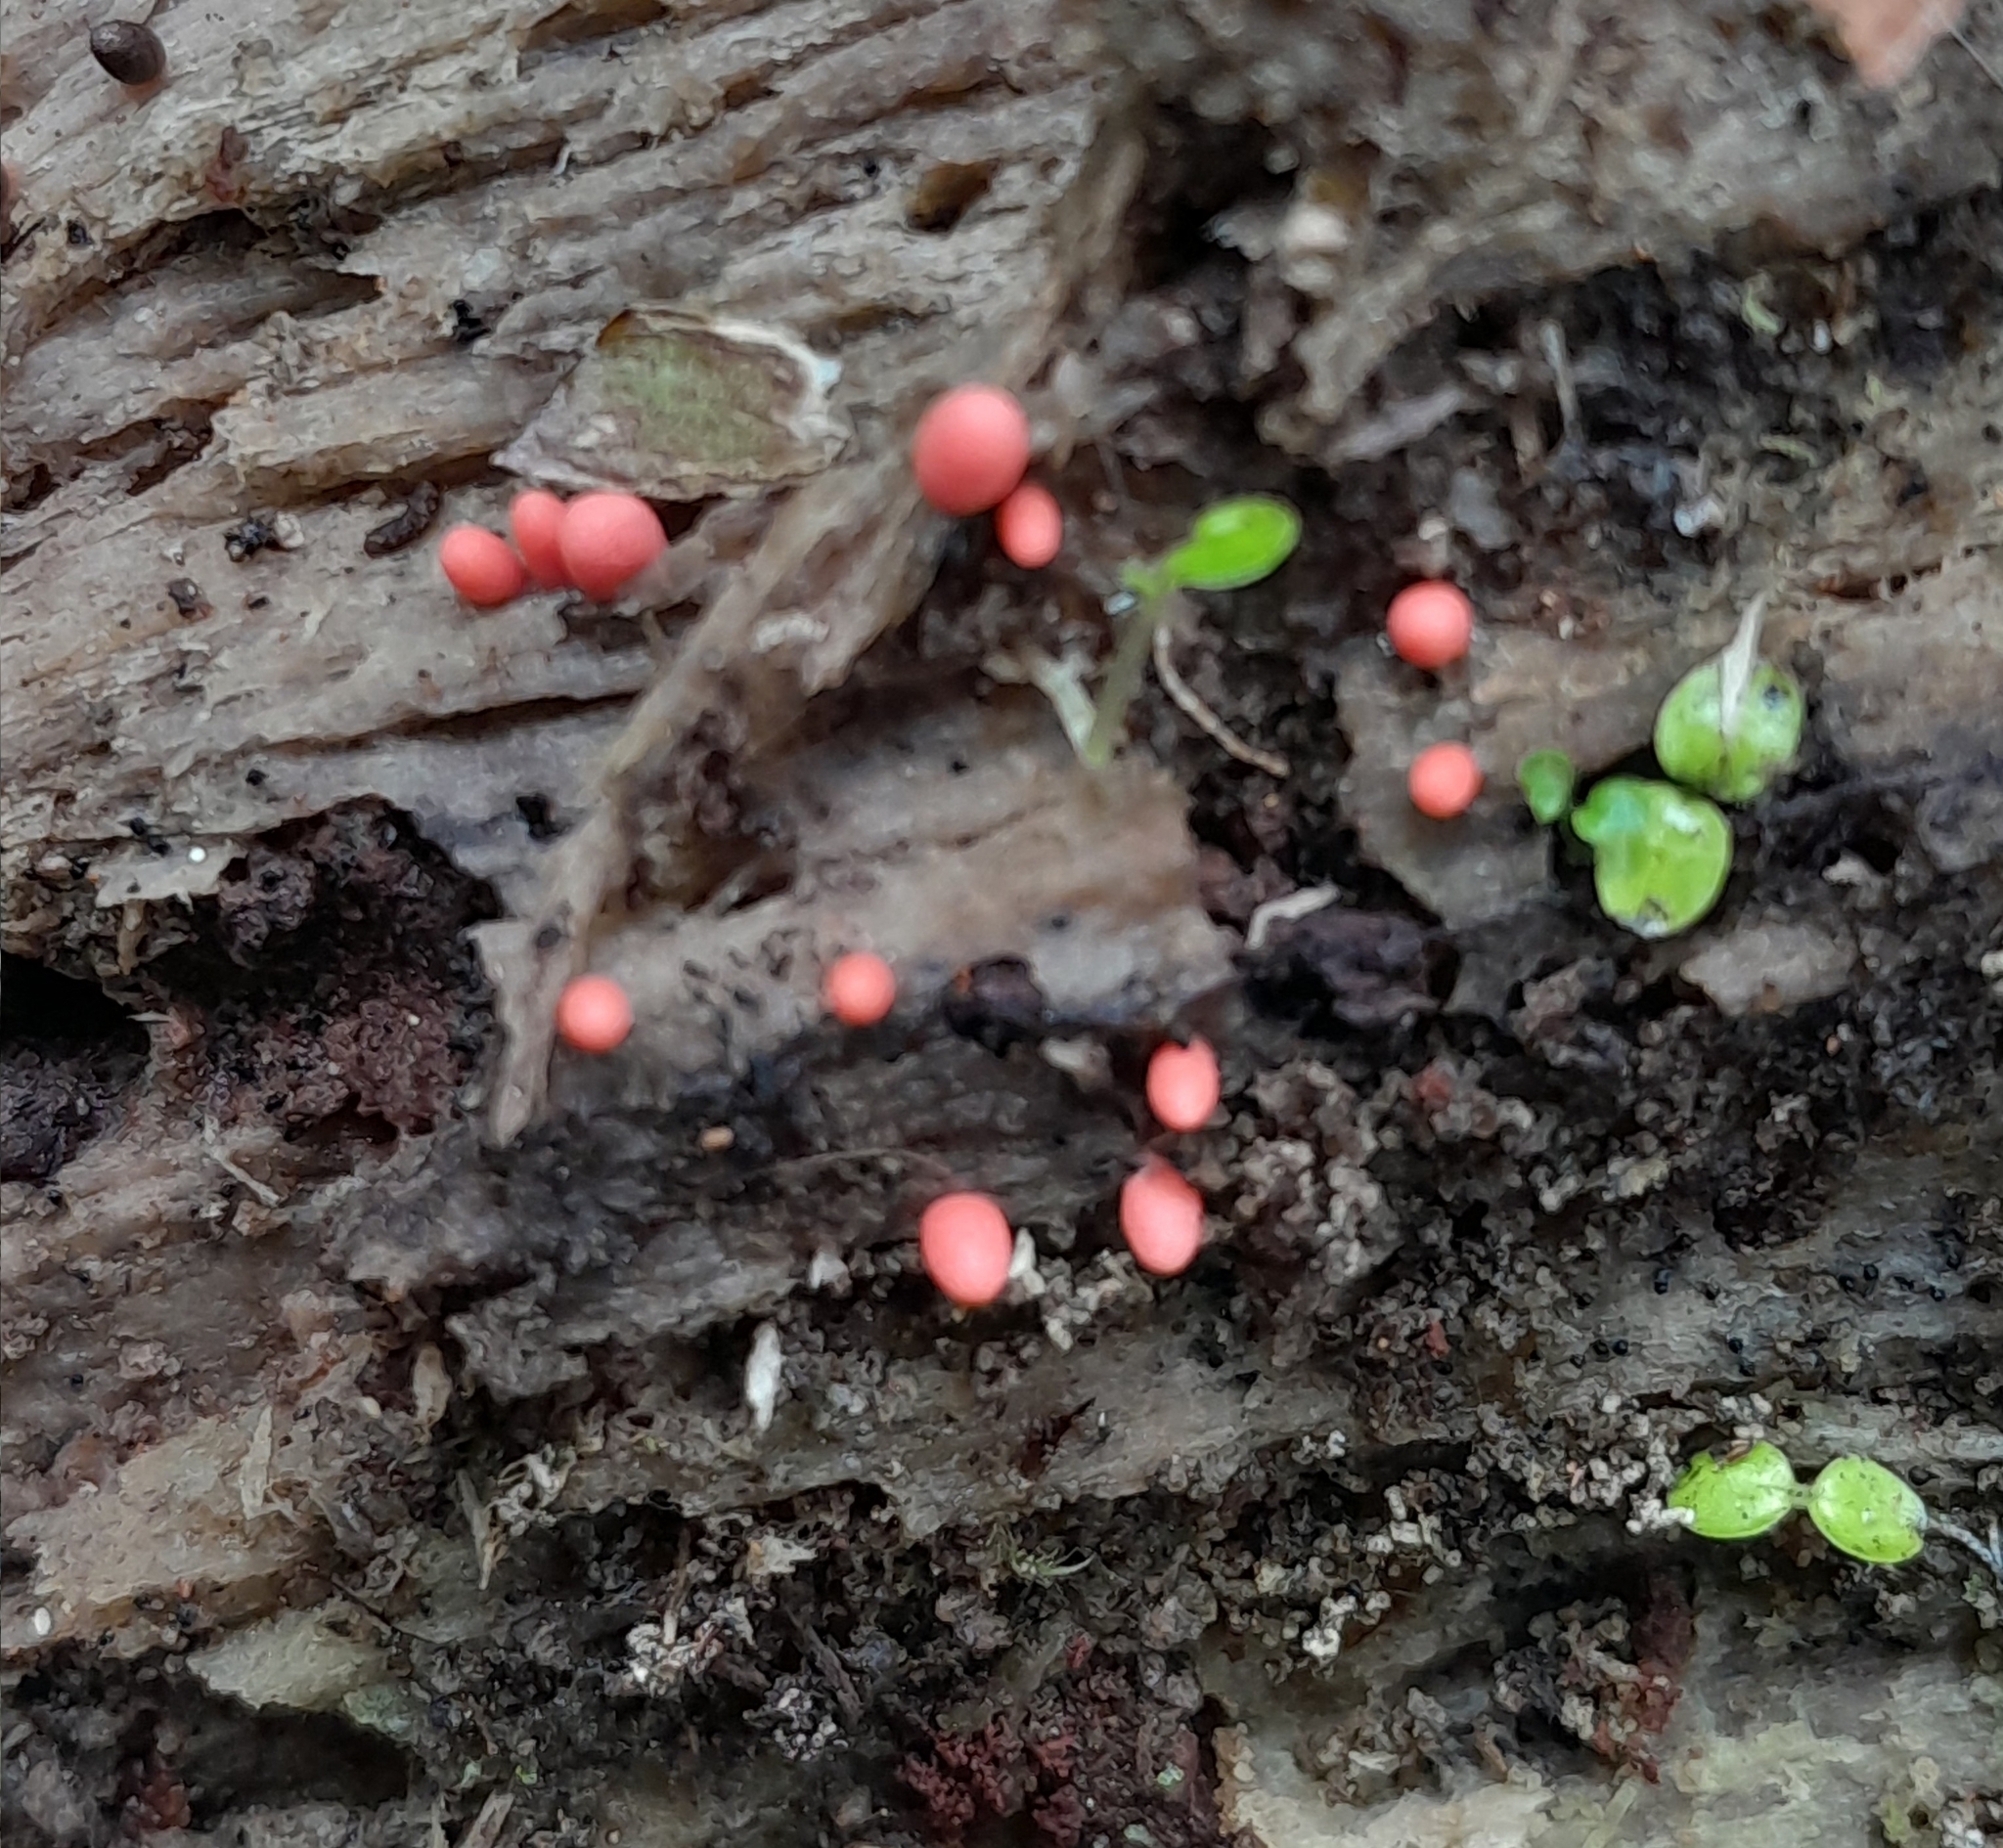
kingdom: Protozoa
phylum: Mycetozoa
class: Myxomycetes
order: Cribrariales
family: Tubiferaceae
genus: Lycogala
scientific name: Lycogala epidendrum
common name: Wolf's milk
